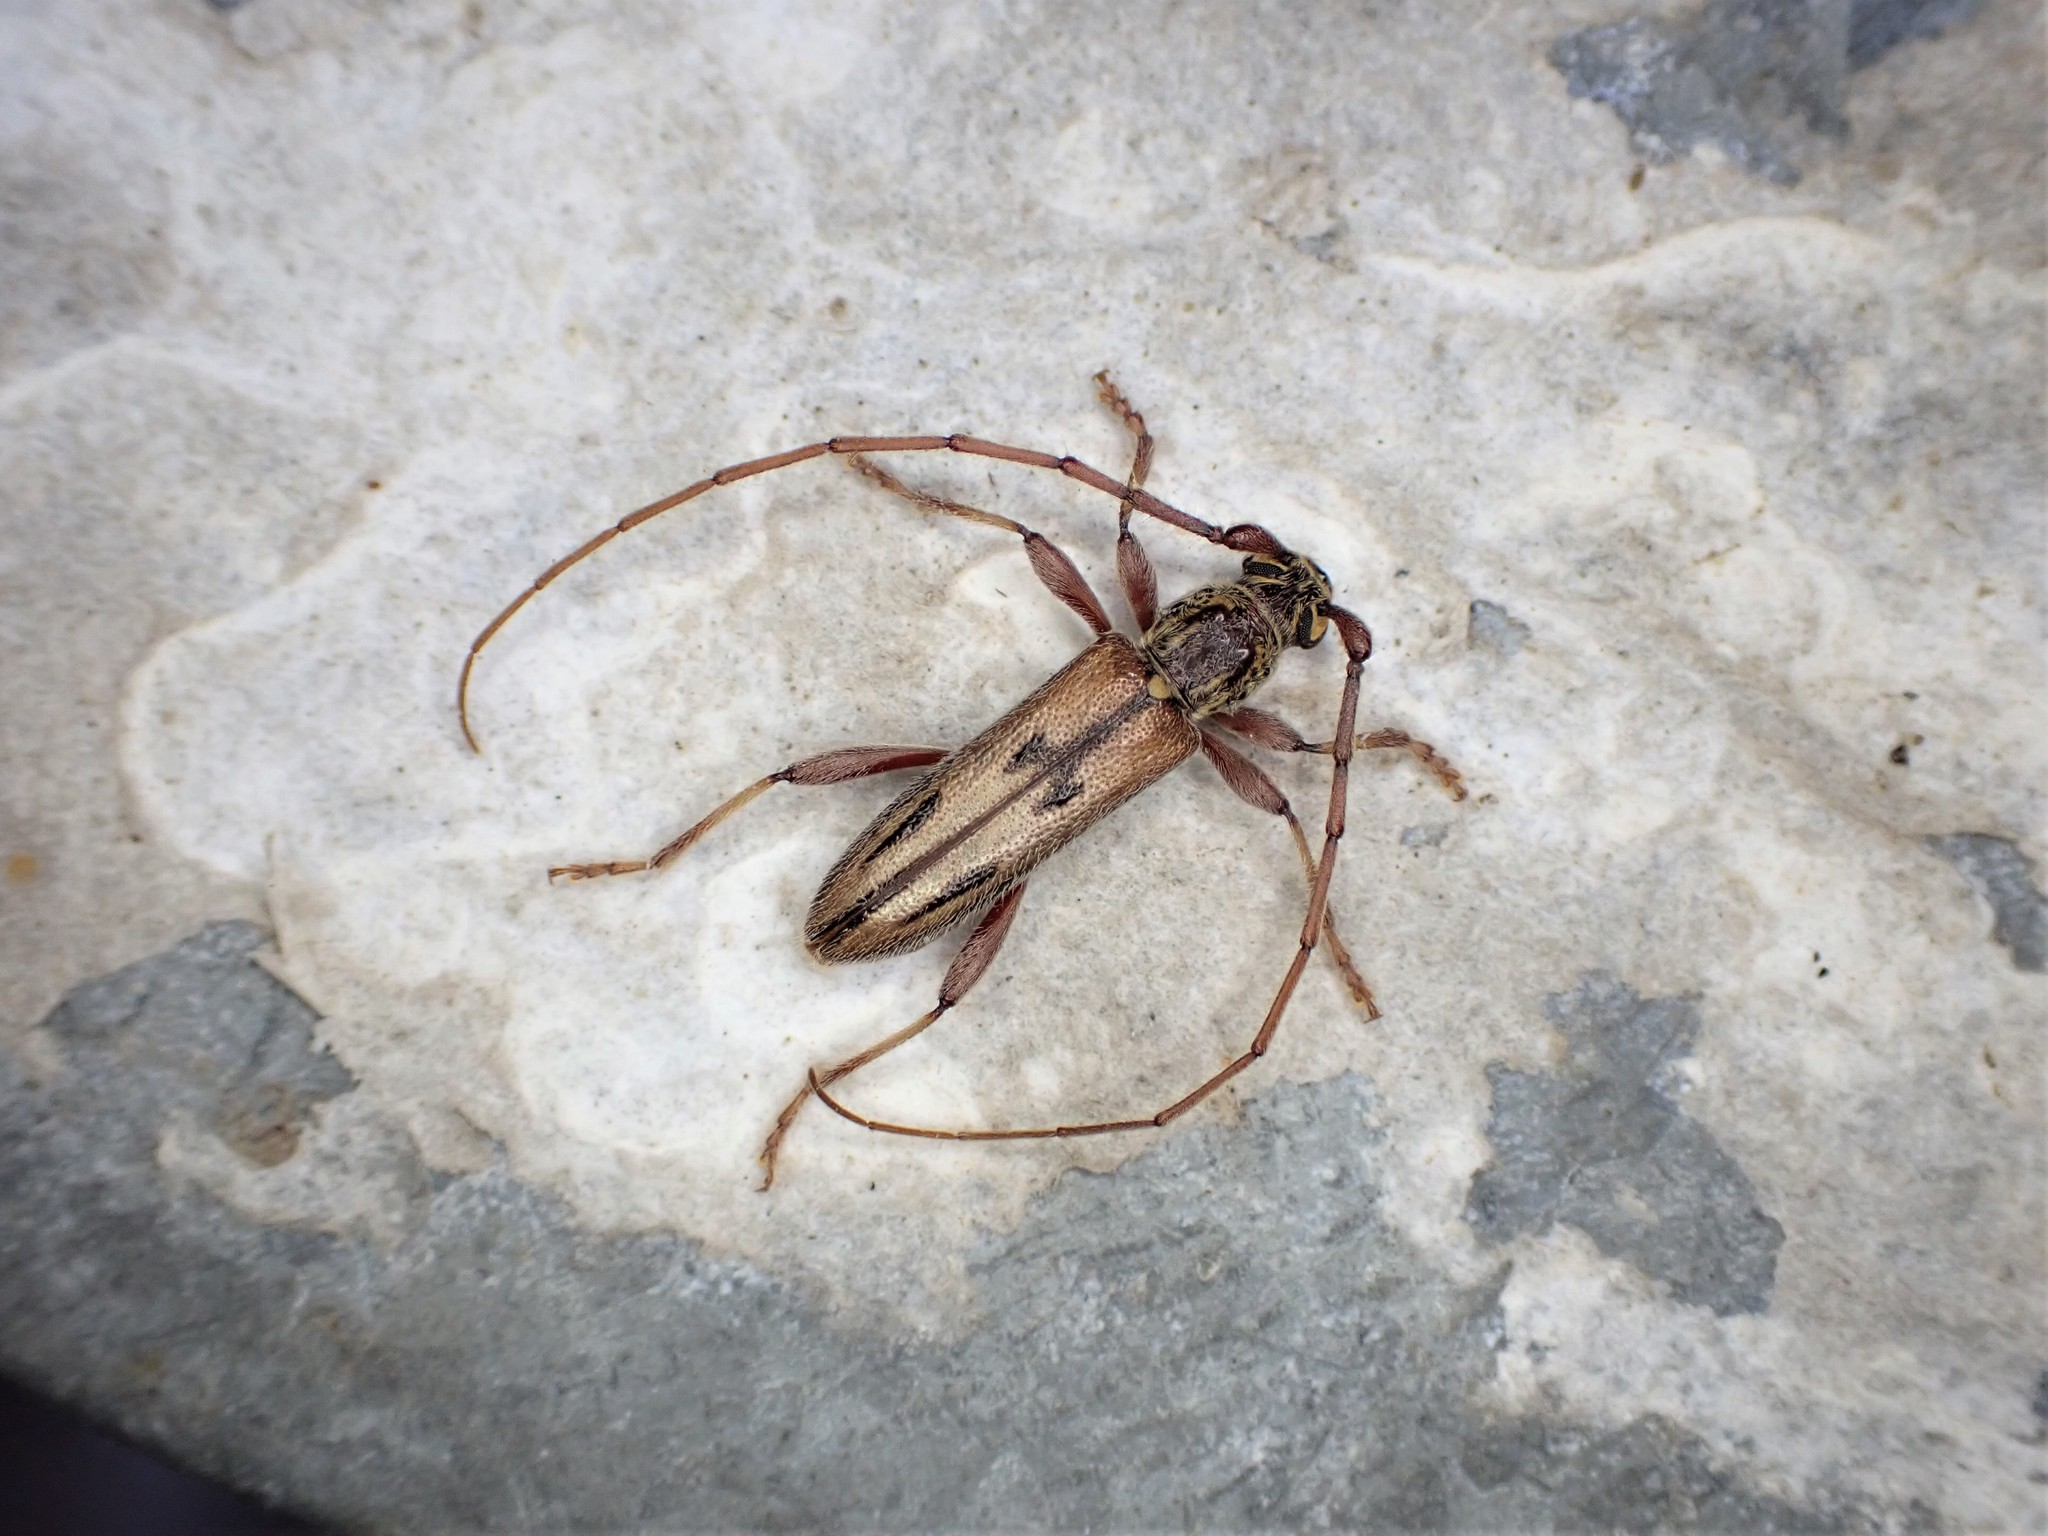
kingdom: Animalia
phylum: Arthropoda
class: Insecta
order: Coleoptera
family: Cerambycidae
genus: Didymocantha
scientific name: Didymocantha sublineata
